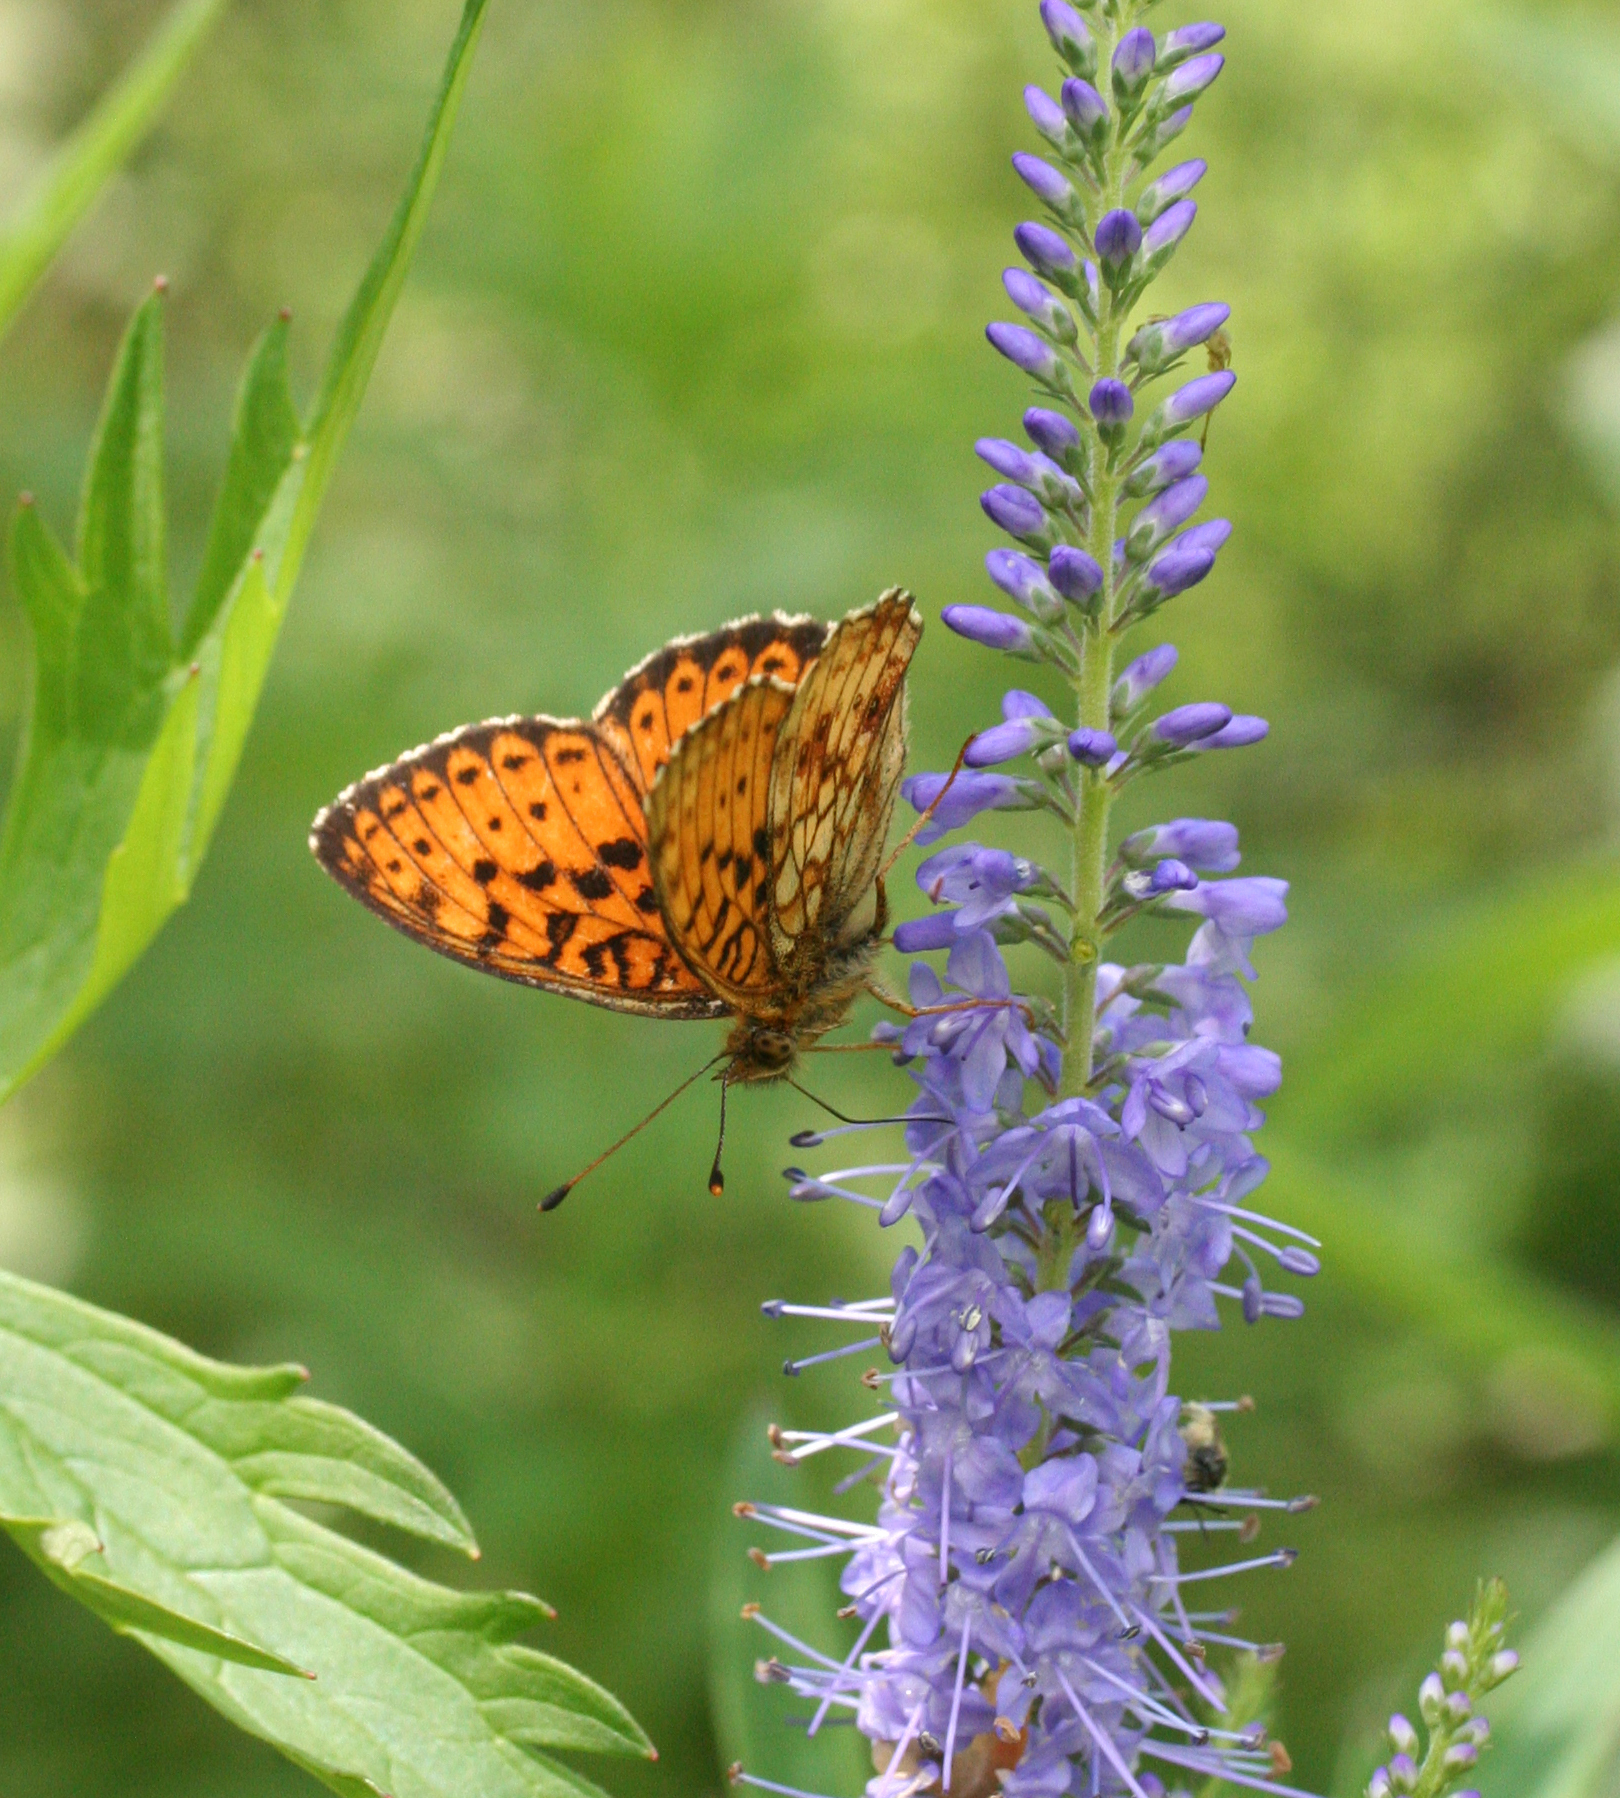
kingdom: Animalia
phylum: Arthropoda
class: Insecta
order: Lepidoptera
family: Nymphalidae
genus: Brenthis
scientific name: Brenthis ino
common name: Lesser marbled fritillary
